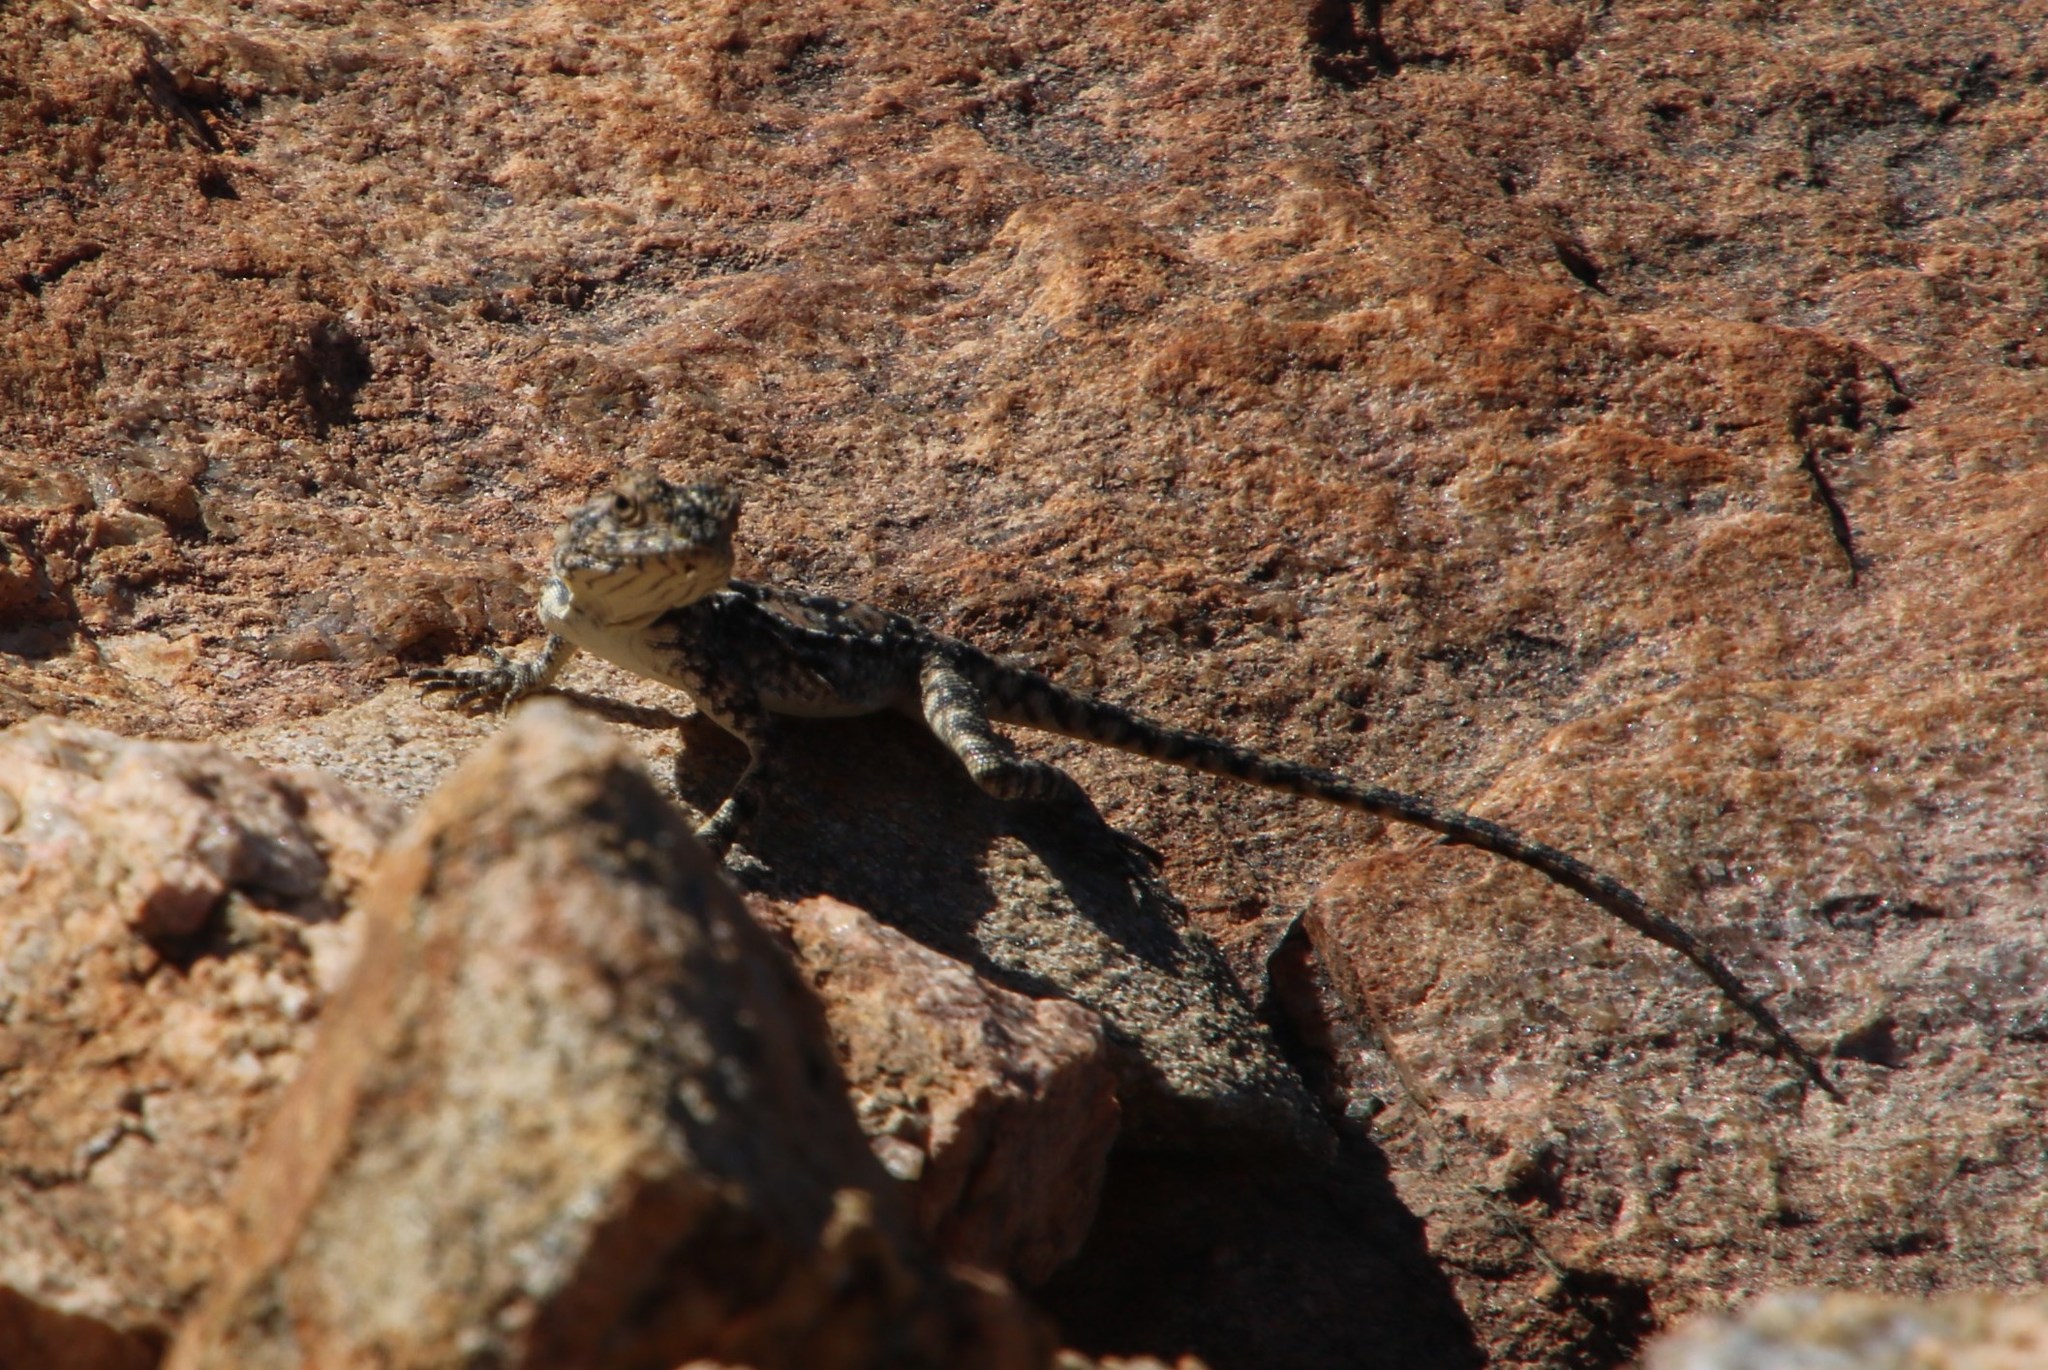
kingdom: Animalia
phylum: Chordata
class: Squamata
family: Agamidae
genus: Agama
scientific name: Agama atra
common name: Southern african rock agama
